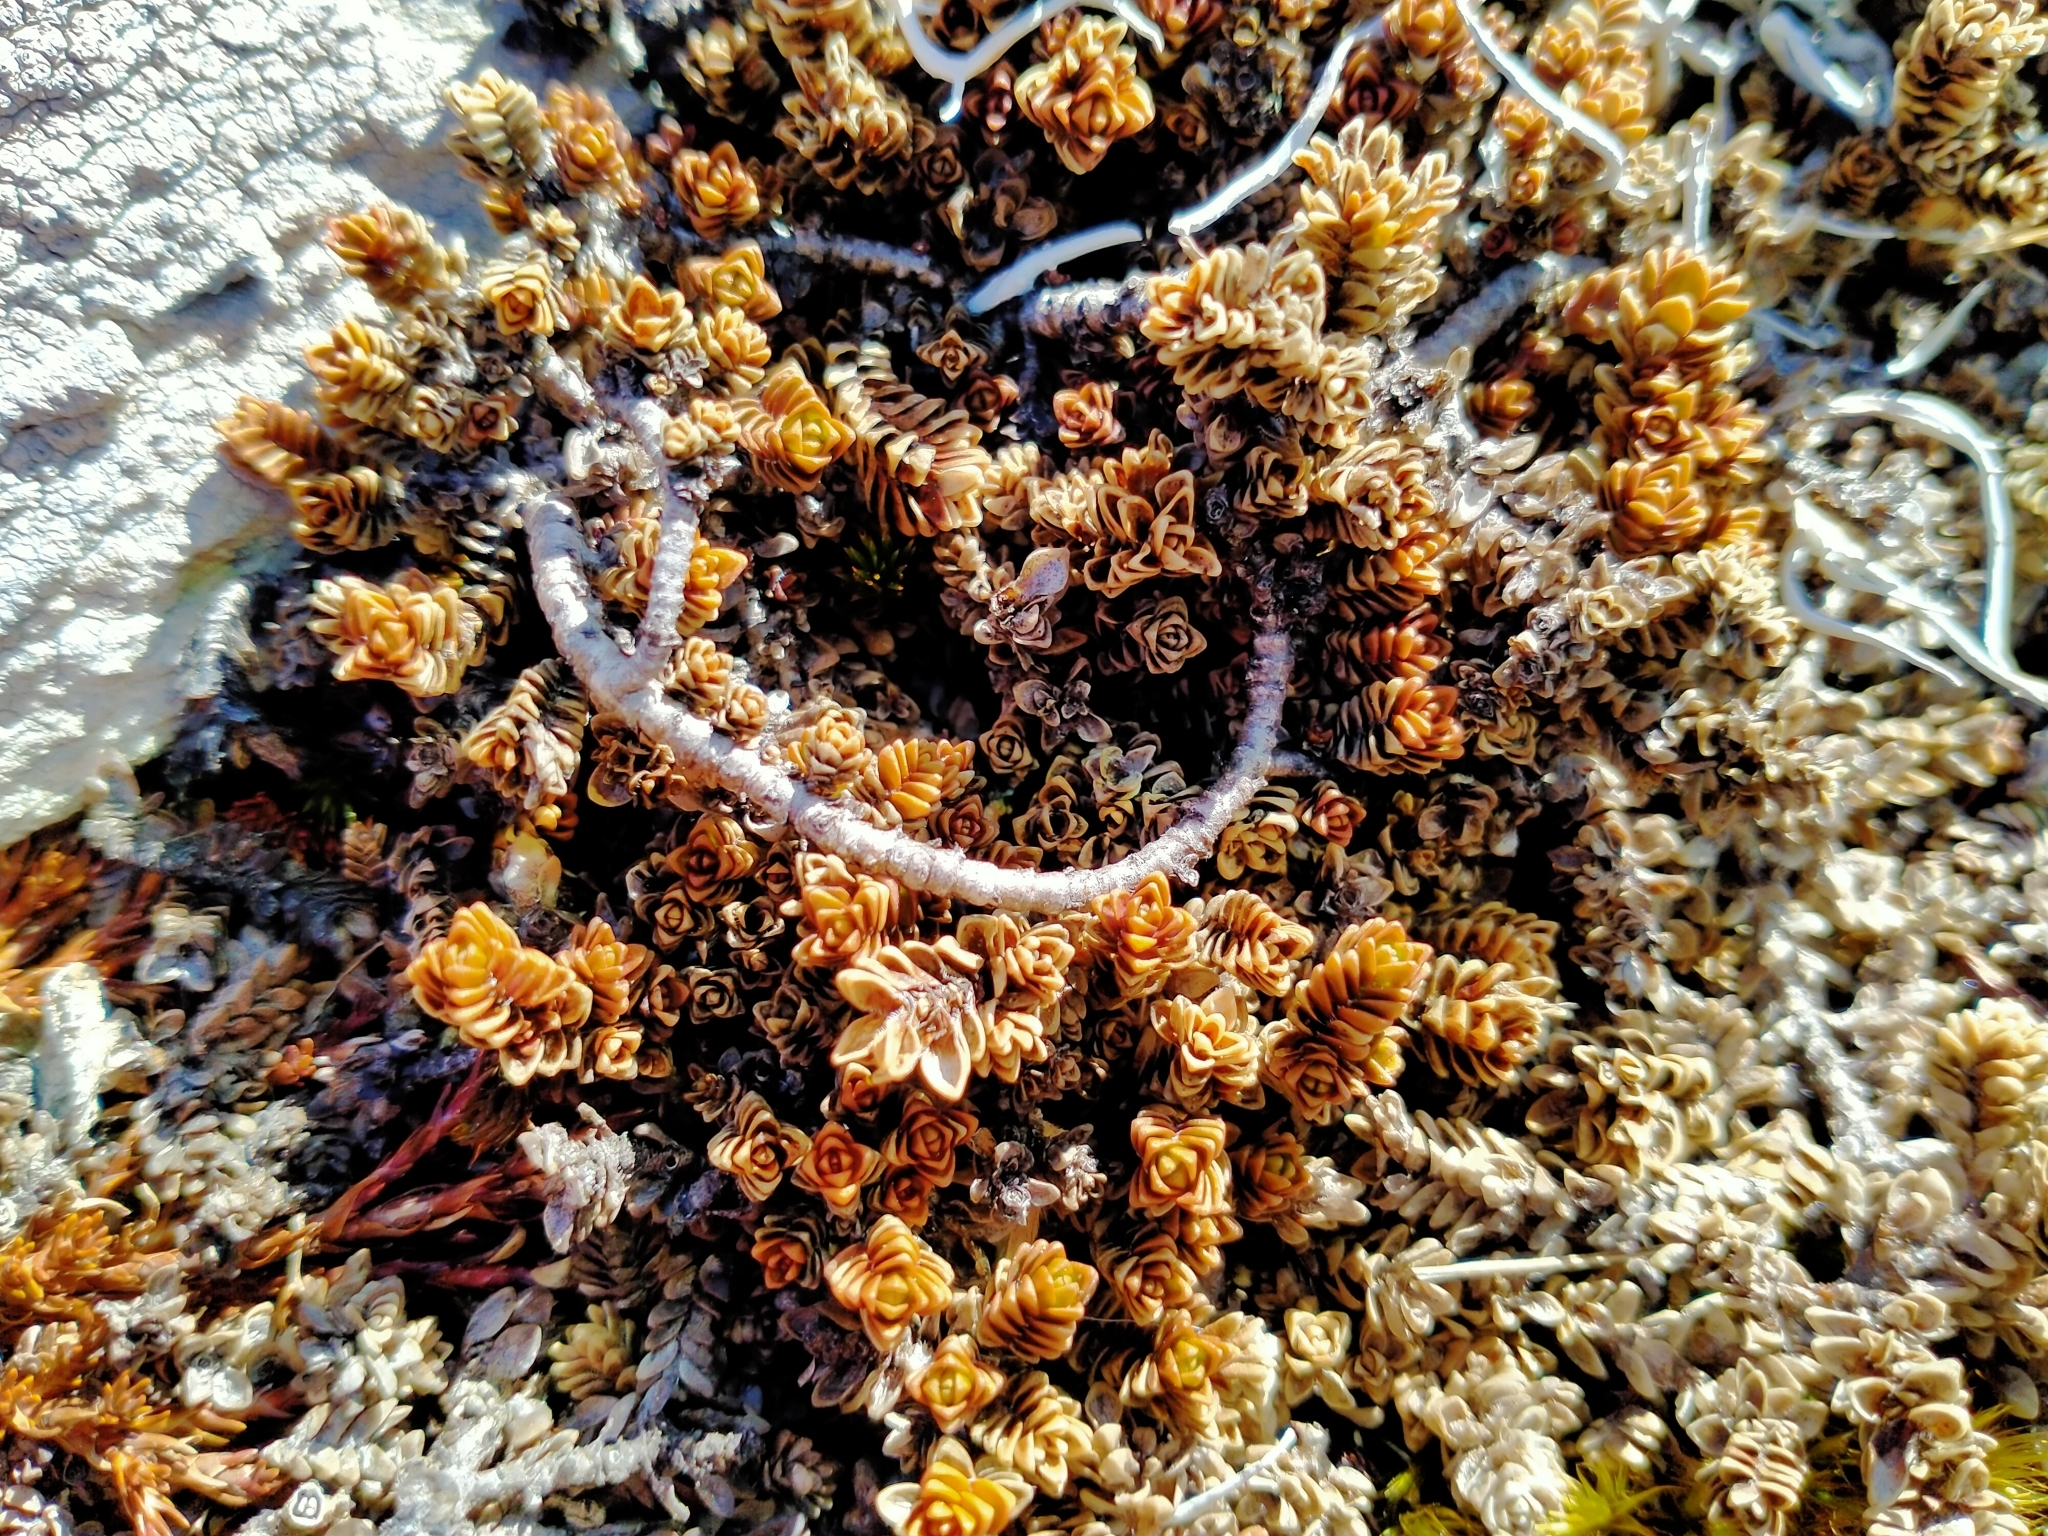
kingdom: Plantae
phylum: Tracheophyta
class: Magnoliopsida
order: Lamiales
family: Plantaginaceae
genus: Veronica
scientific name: Veronica densifolia
